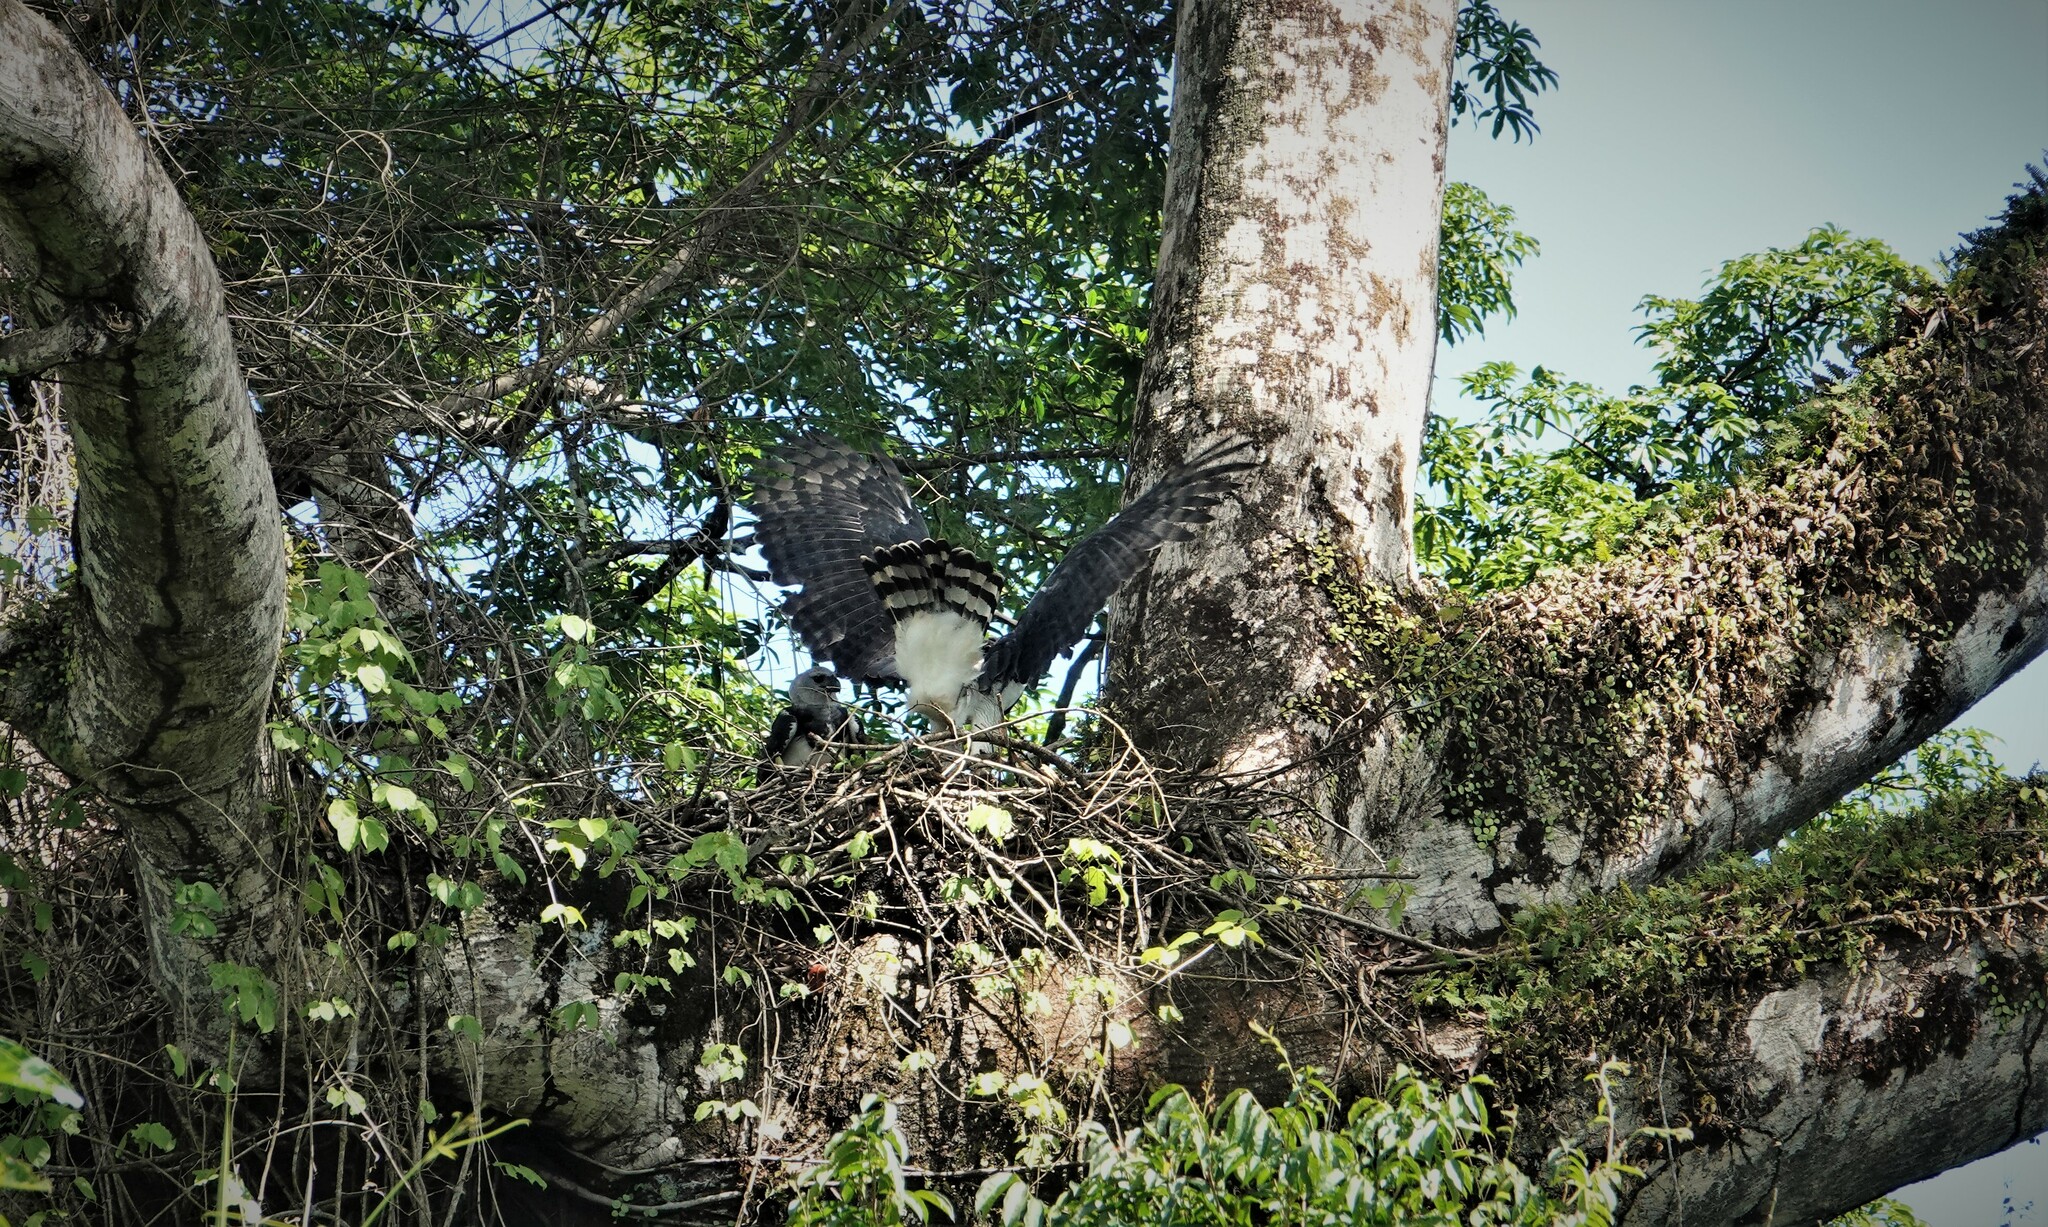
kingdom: Animalia
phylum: Chordata
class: Aves
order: Accipitriformes
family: Accipitridae
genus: Harpia
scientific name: Harpia harpyja
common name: Harpy eagle
